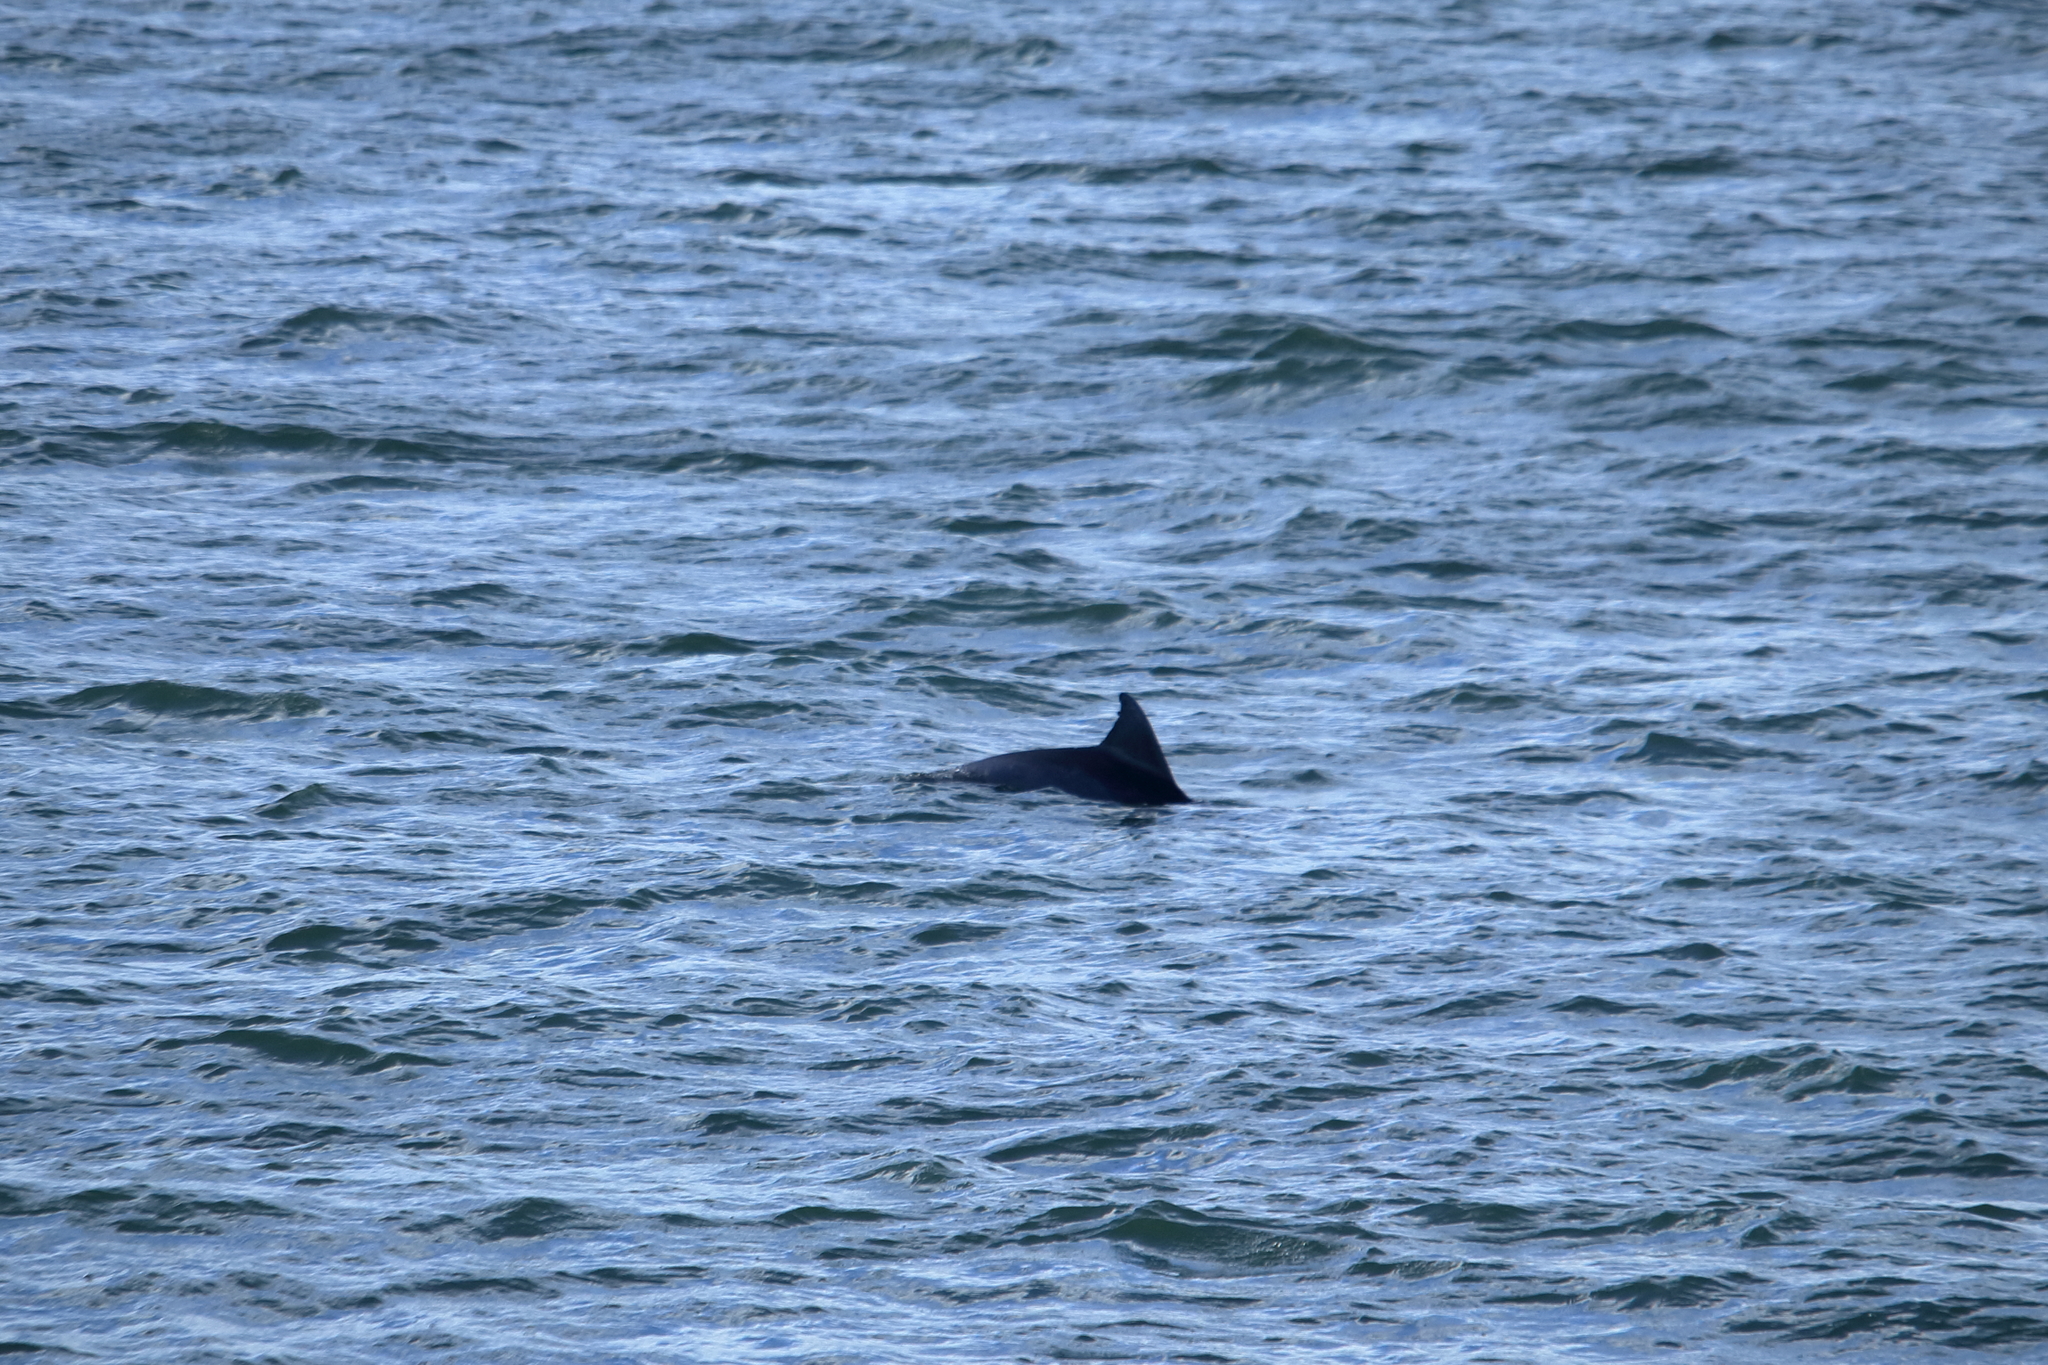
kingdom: Animalia
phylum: Chordata
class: Mammalia
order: Cetacea
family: Delphinidae
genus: Tursiops
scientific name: Tursiops truncatus
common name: Bottlenose dolphin
